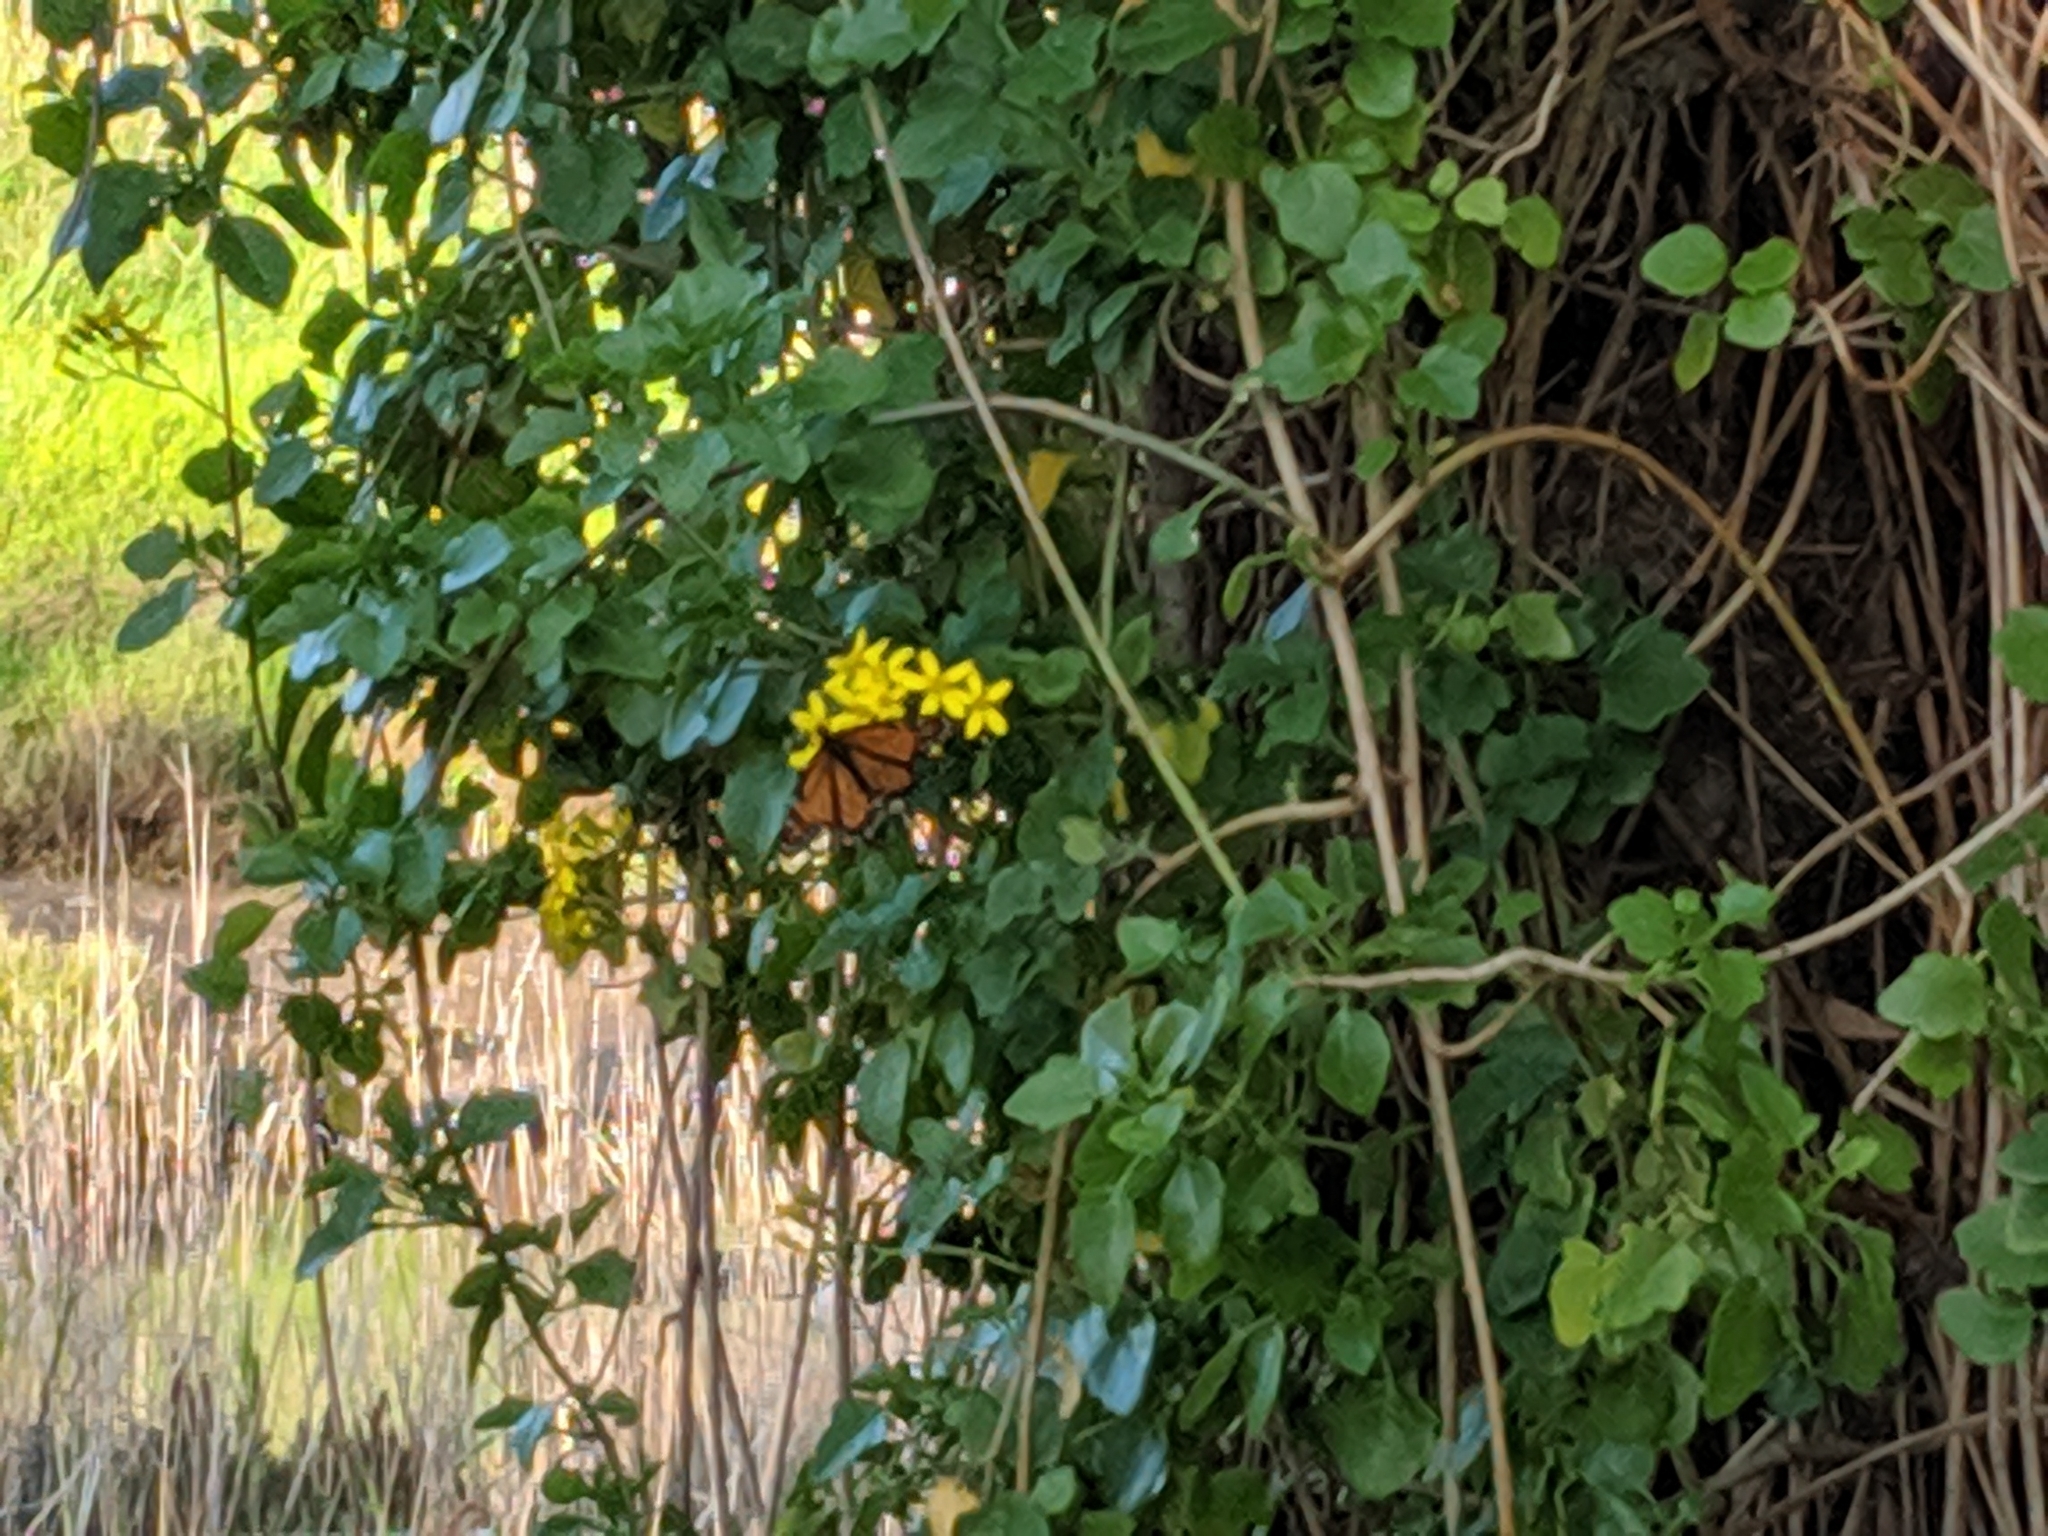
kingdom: Animalia
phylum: Arthropoda
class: Insecta
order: Lepidoptera
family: Nymphalidae
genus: Danaus
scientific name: Danaus plexippus
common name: Monarch
